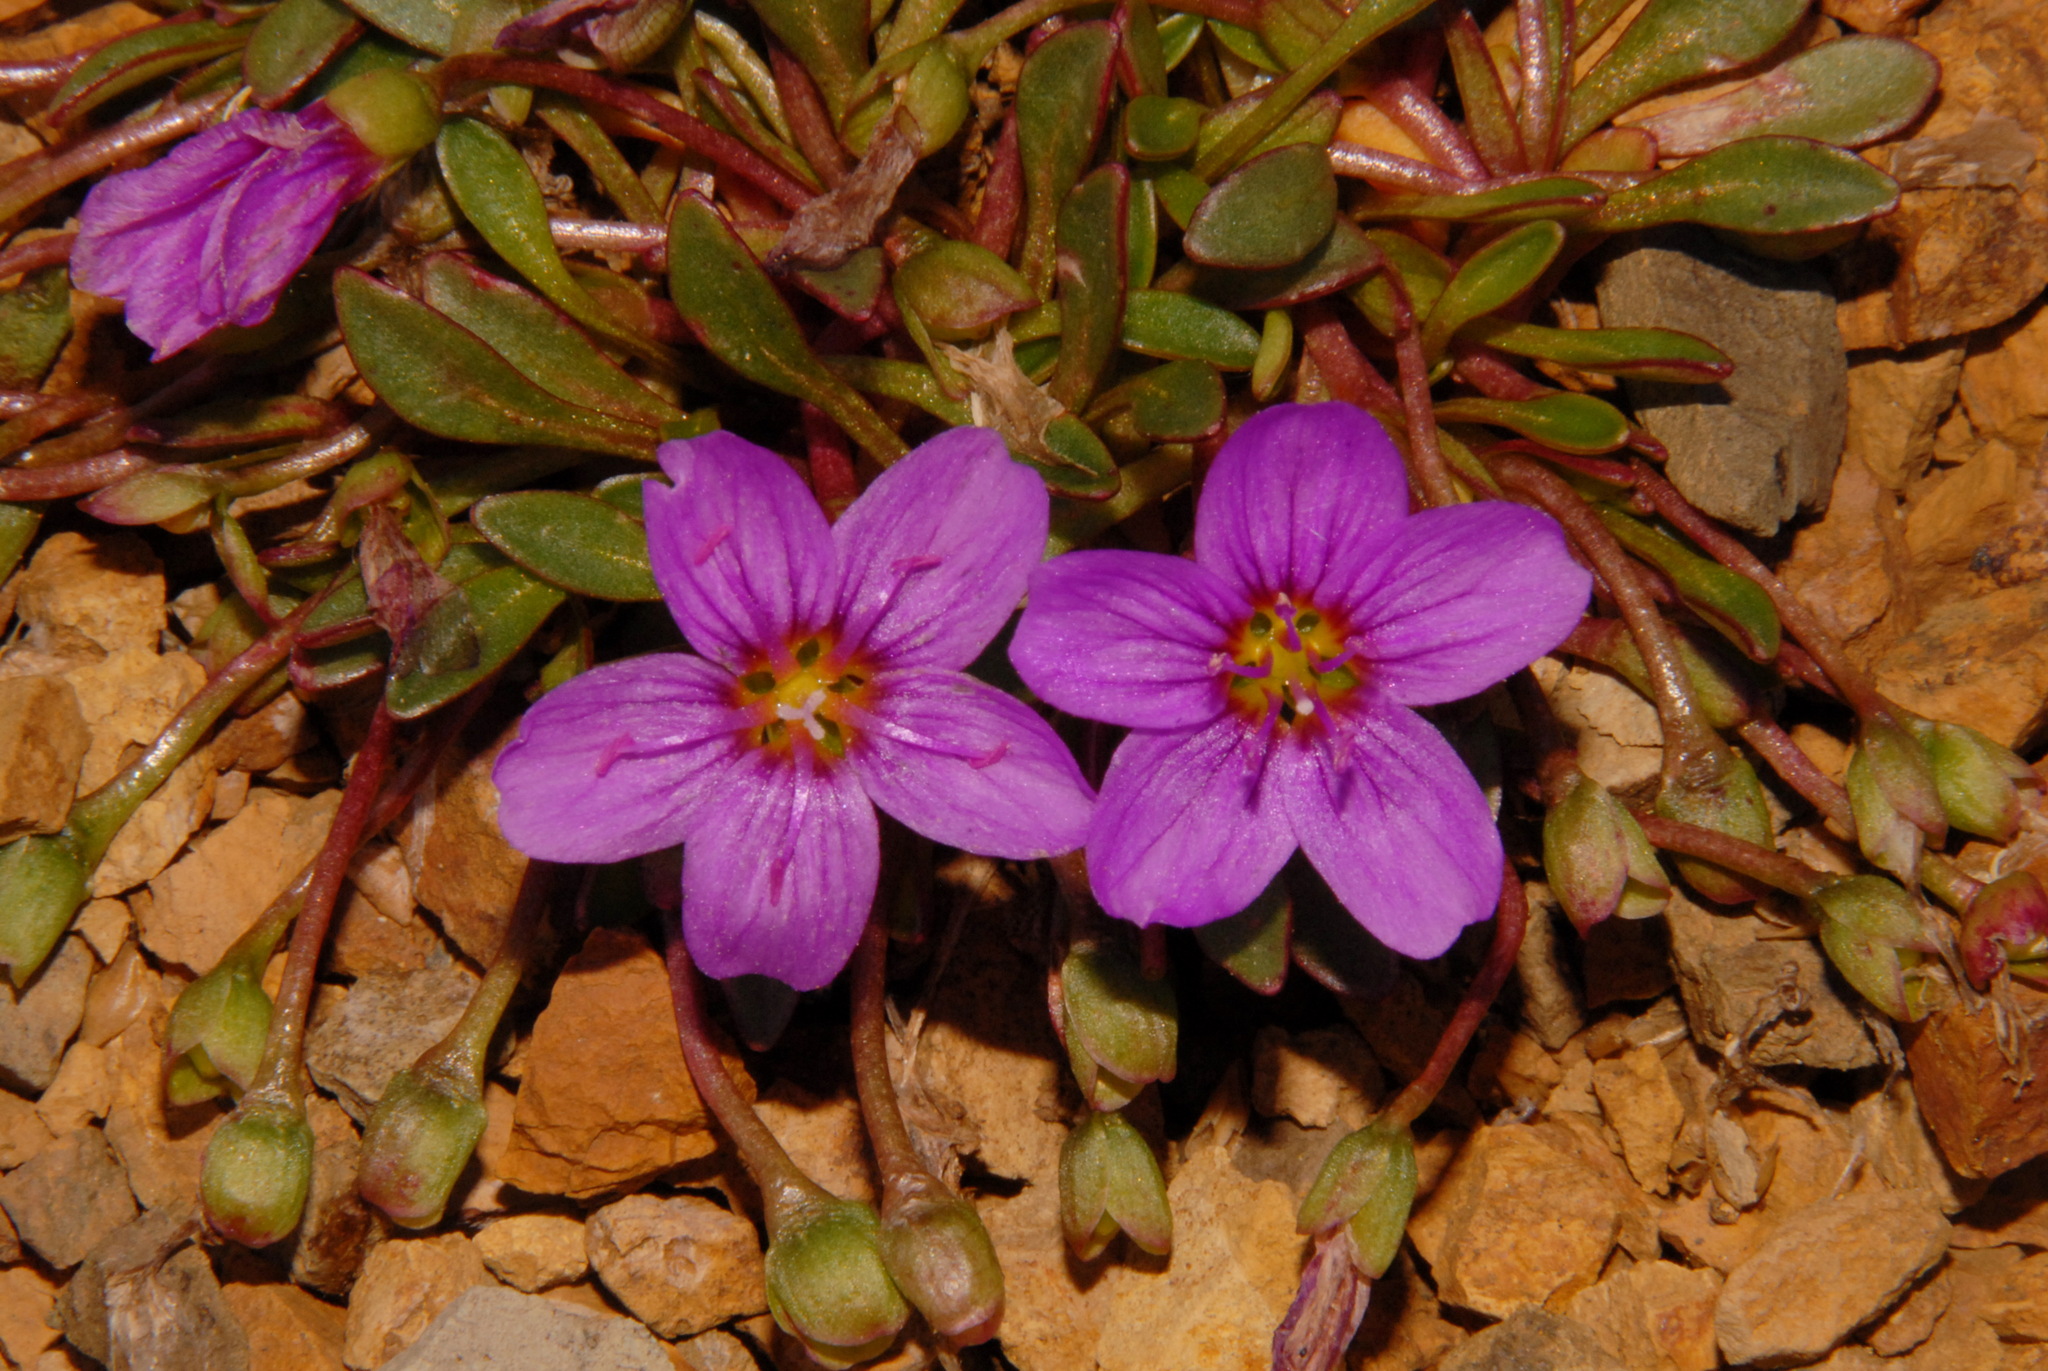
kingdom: Plantae
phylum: Tracheophyta
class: Magnoliopsida
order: Caryophyllales
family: Montiaceae
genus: Claytonia
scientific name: Claytonia scammaniana
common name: Scamman's claytonia
